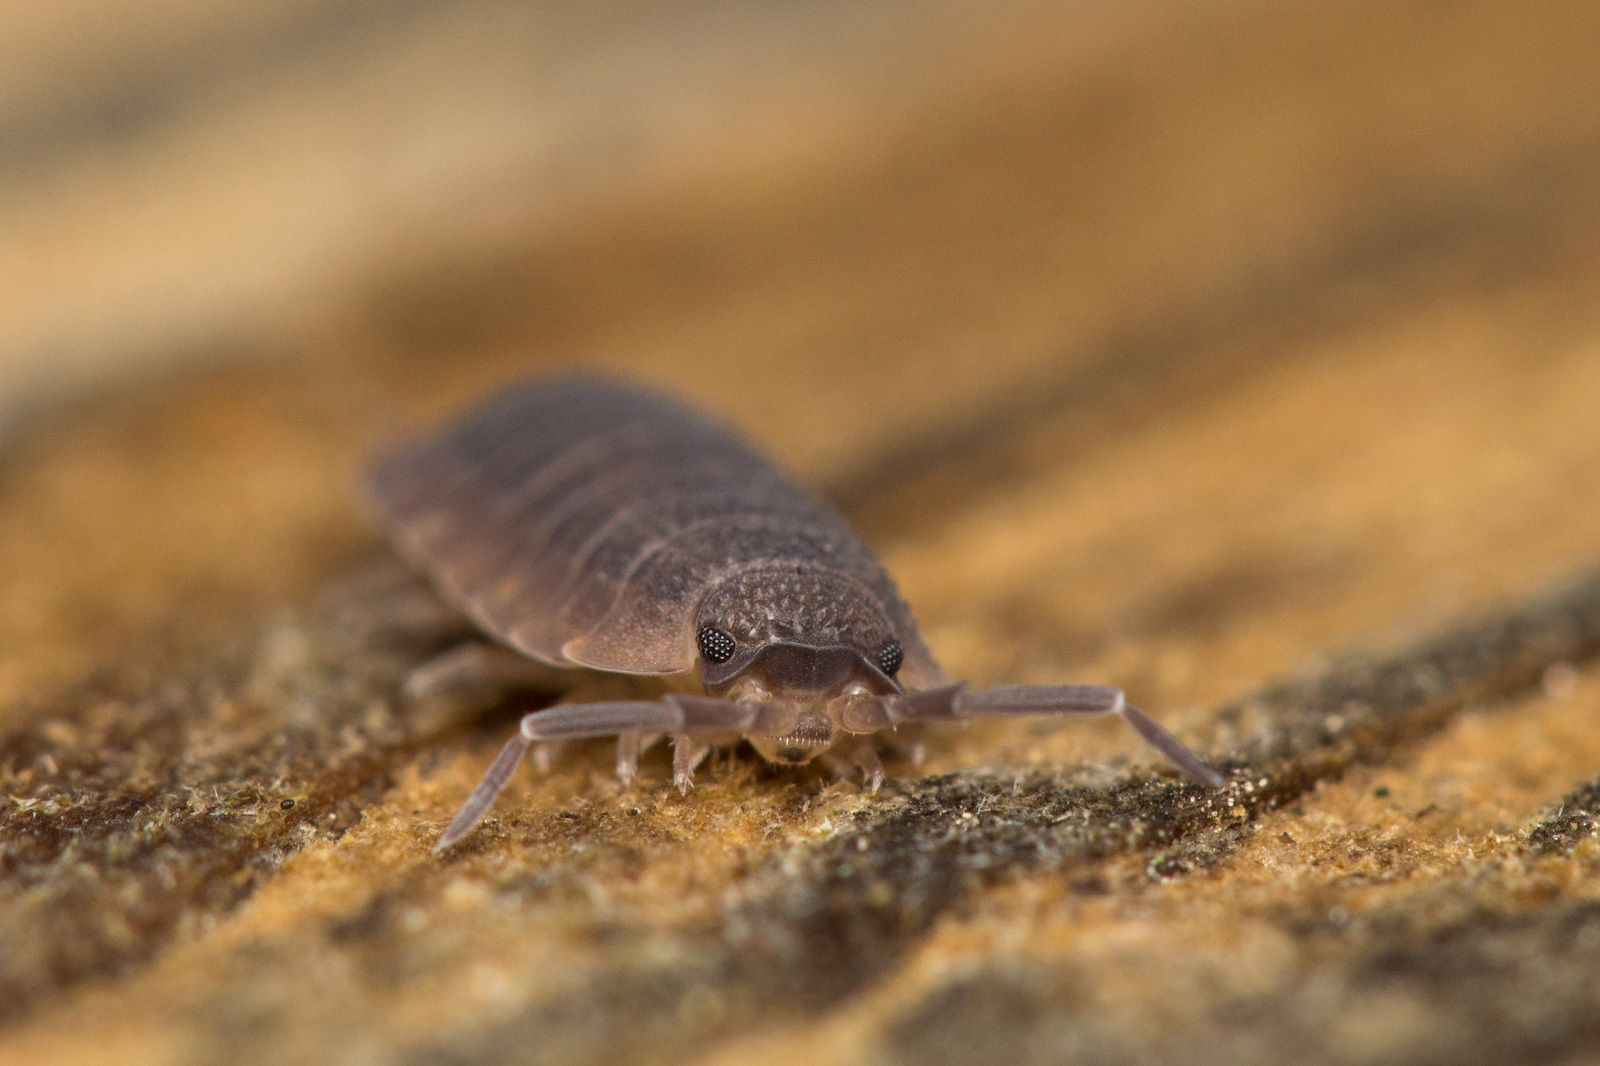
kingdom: Animalia
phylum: Arthropoda
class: Malacostraca
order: Isopoda
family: Porcellionidae
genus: Porcellio
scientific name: Porcellio scaber
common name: Common rough woodlouse
